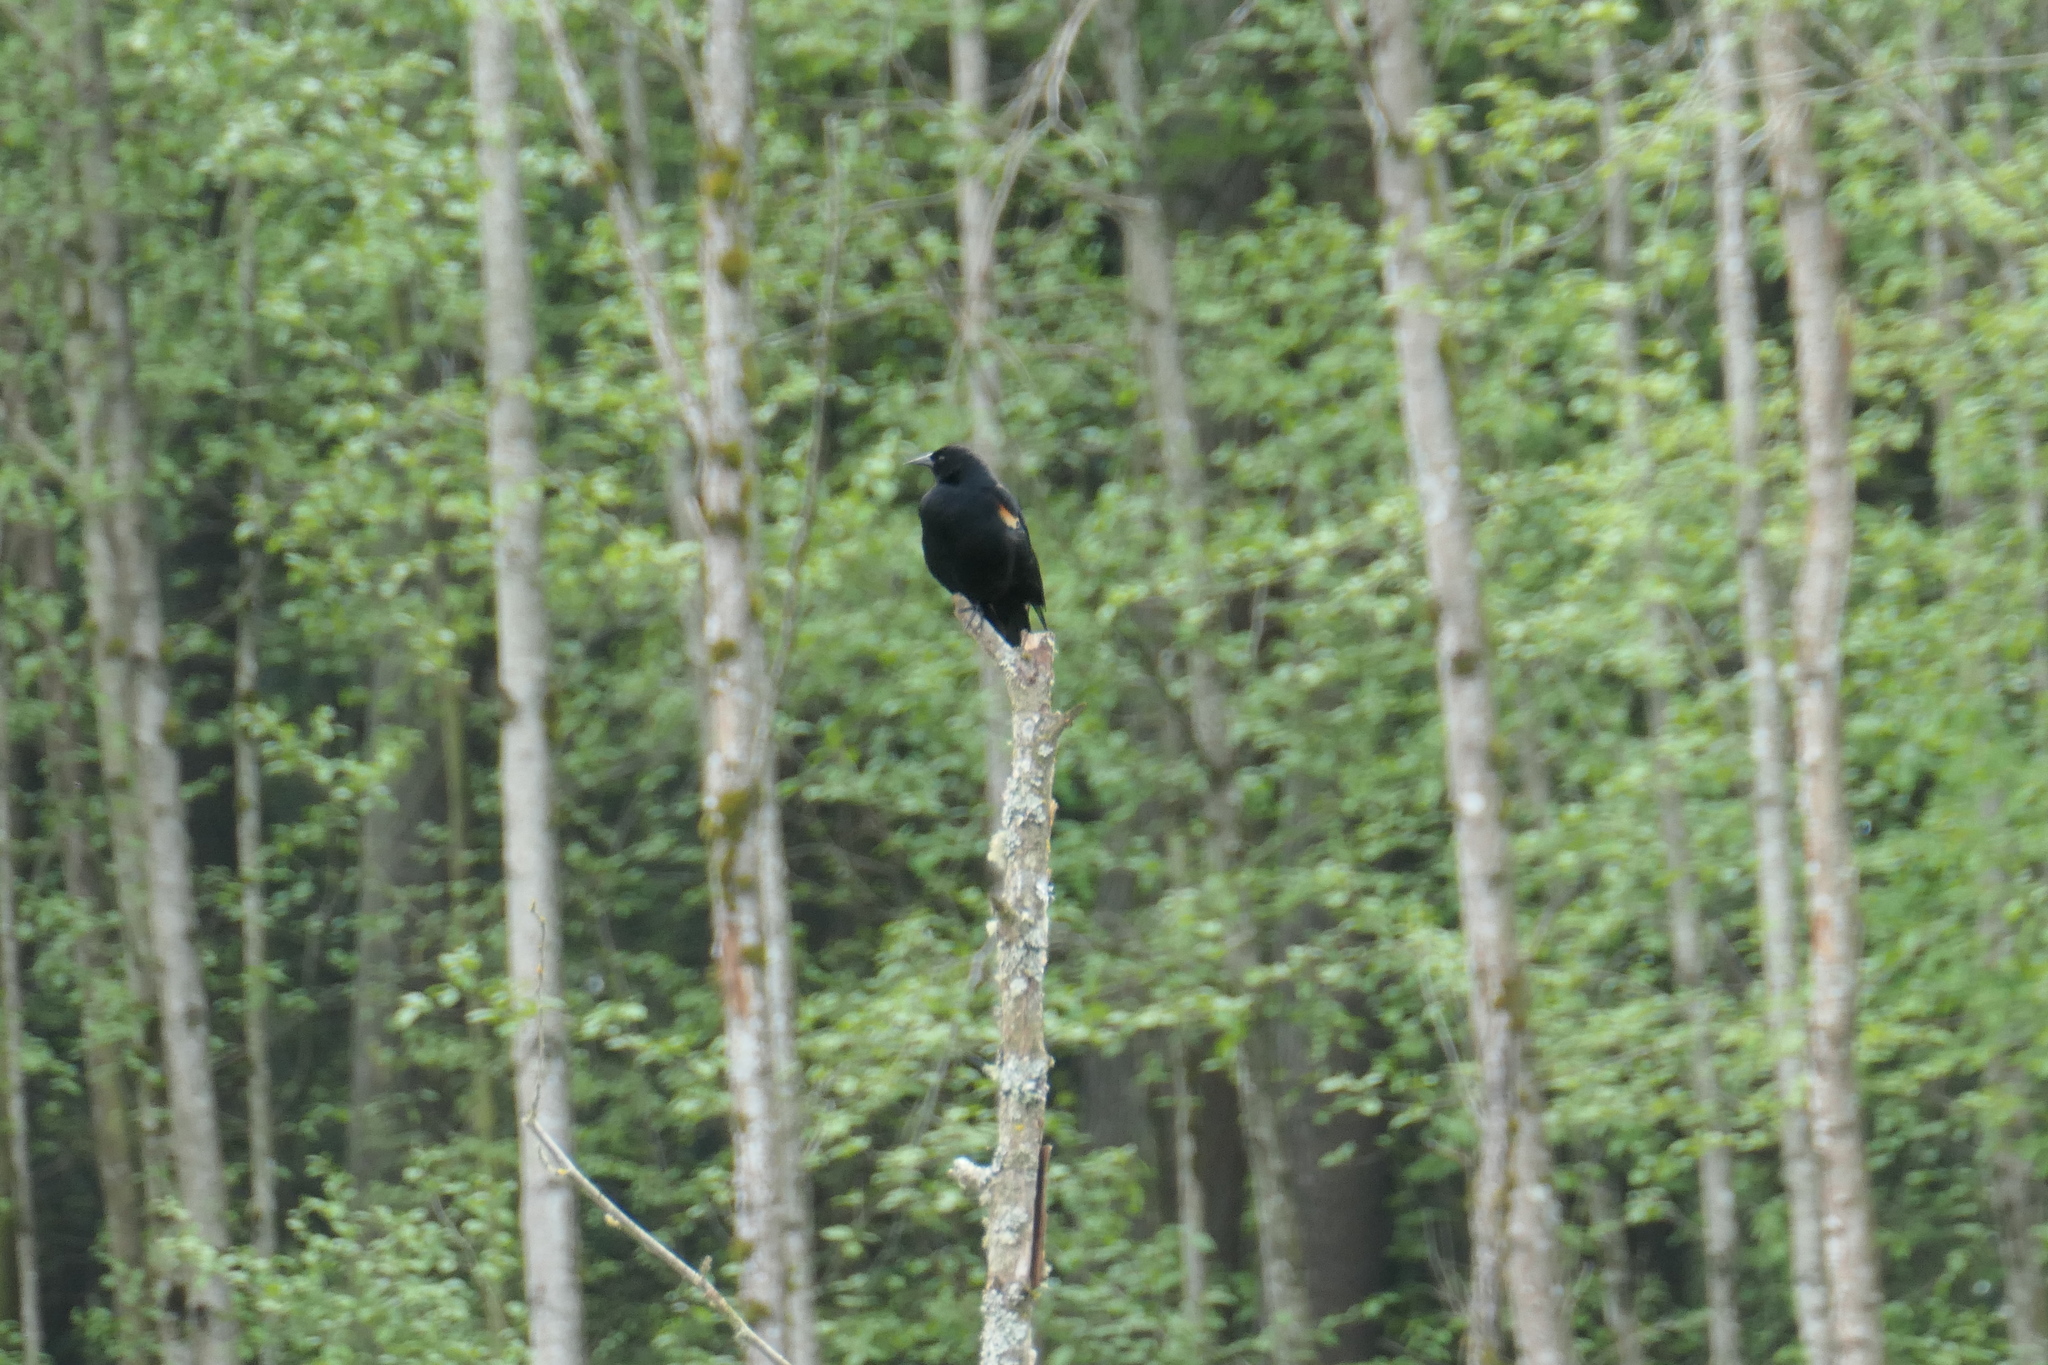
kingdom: Animalia
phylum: Chordata
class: Aves
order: Passeriformes
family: Icteridae
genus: Agelaius
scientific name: Agelaius phoeniceus
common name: Red-winged blackbird
